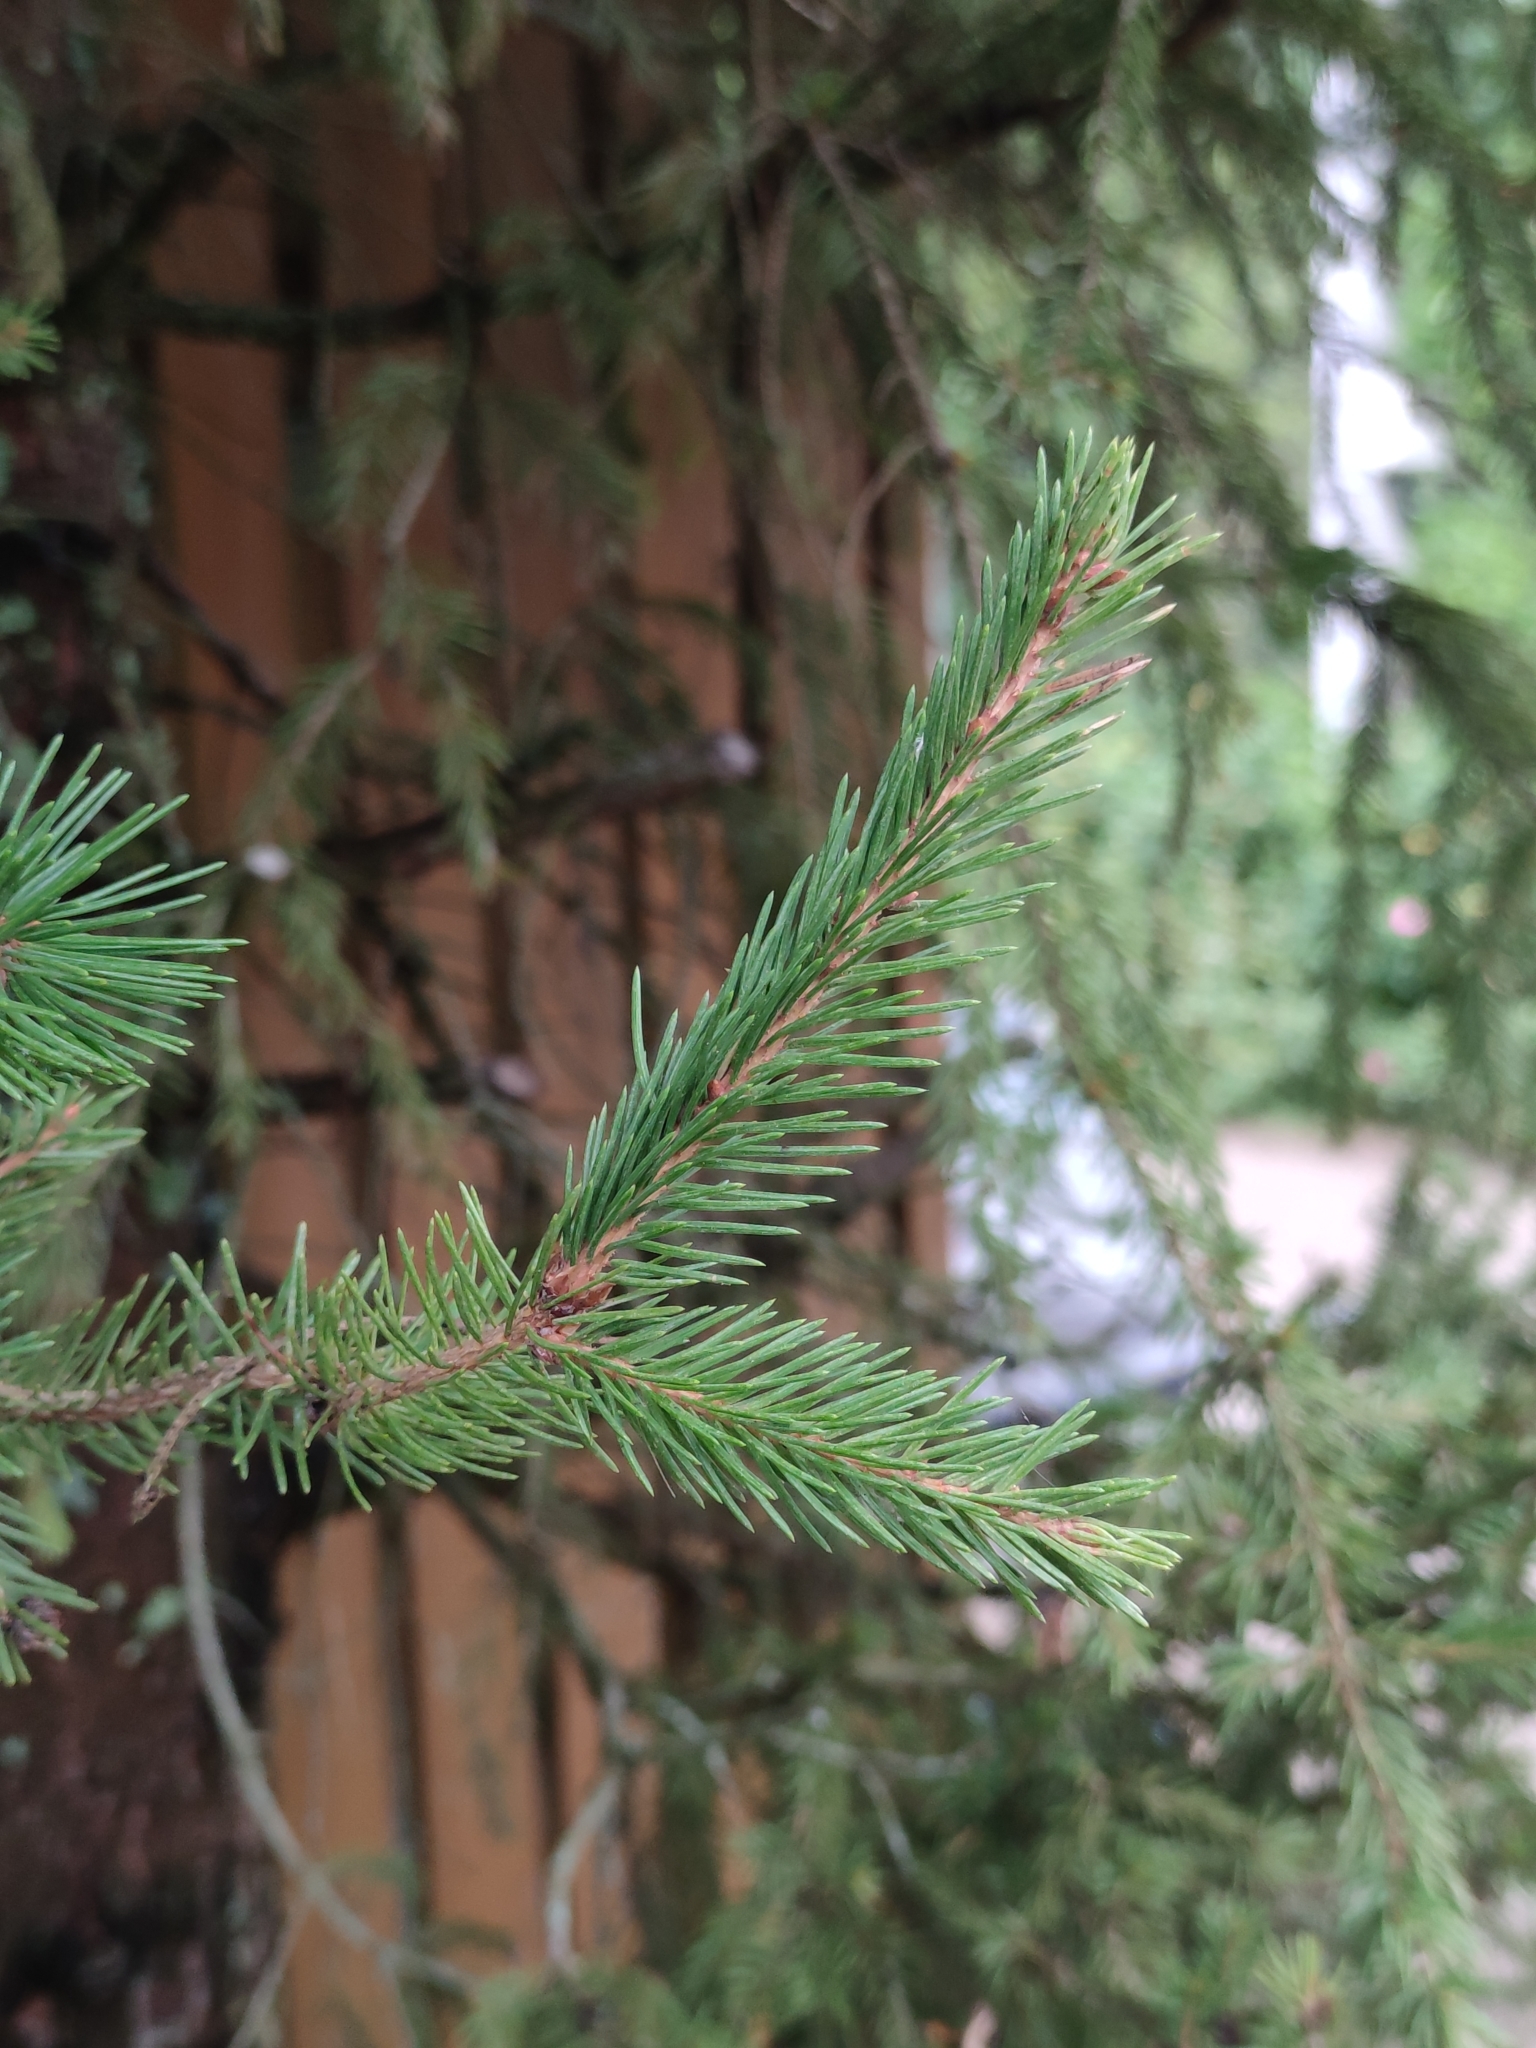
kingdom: Plantae
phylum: Tracheophyta
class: Pinopsida
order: Pinales
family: Pinaceae
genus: Picea
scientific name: Picea abies
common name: Norway spruce
